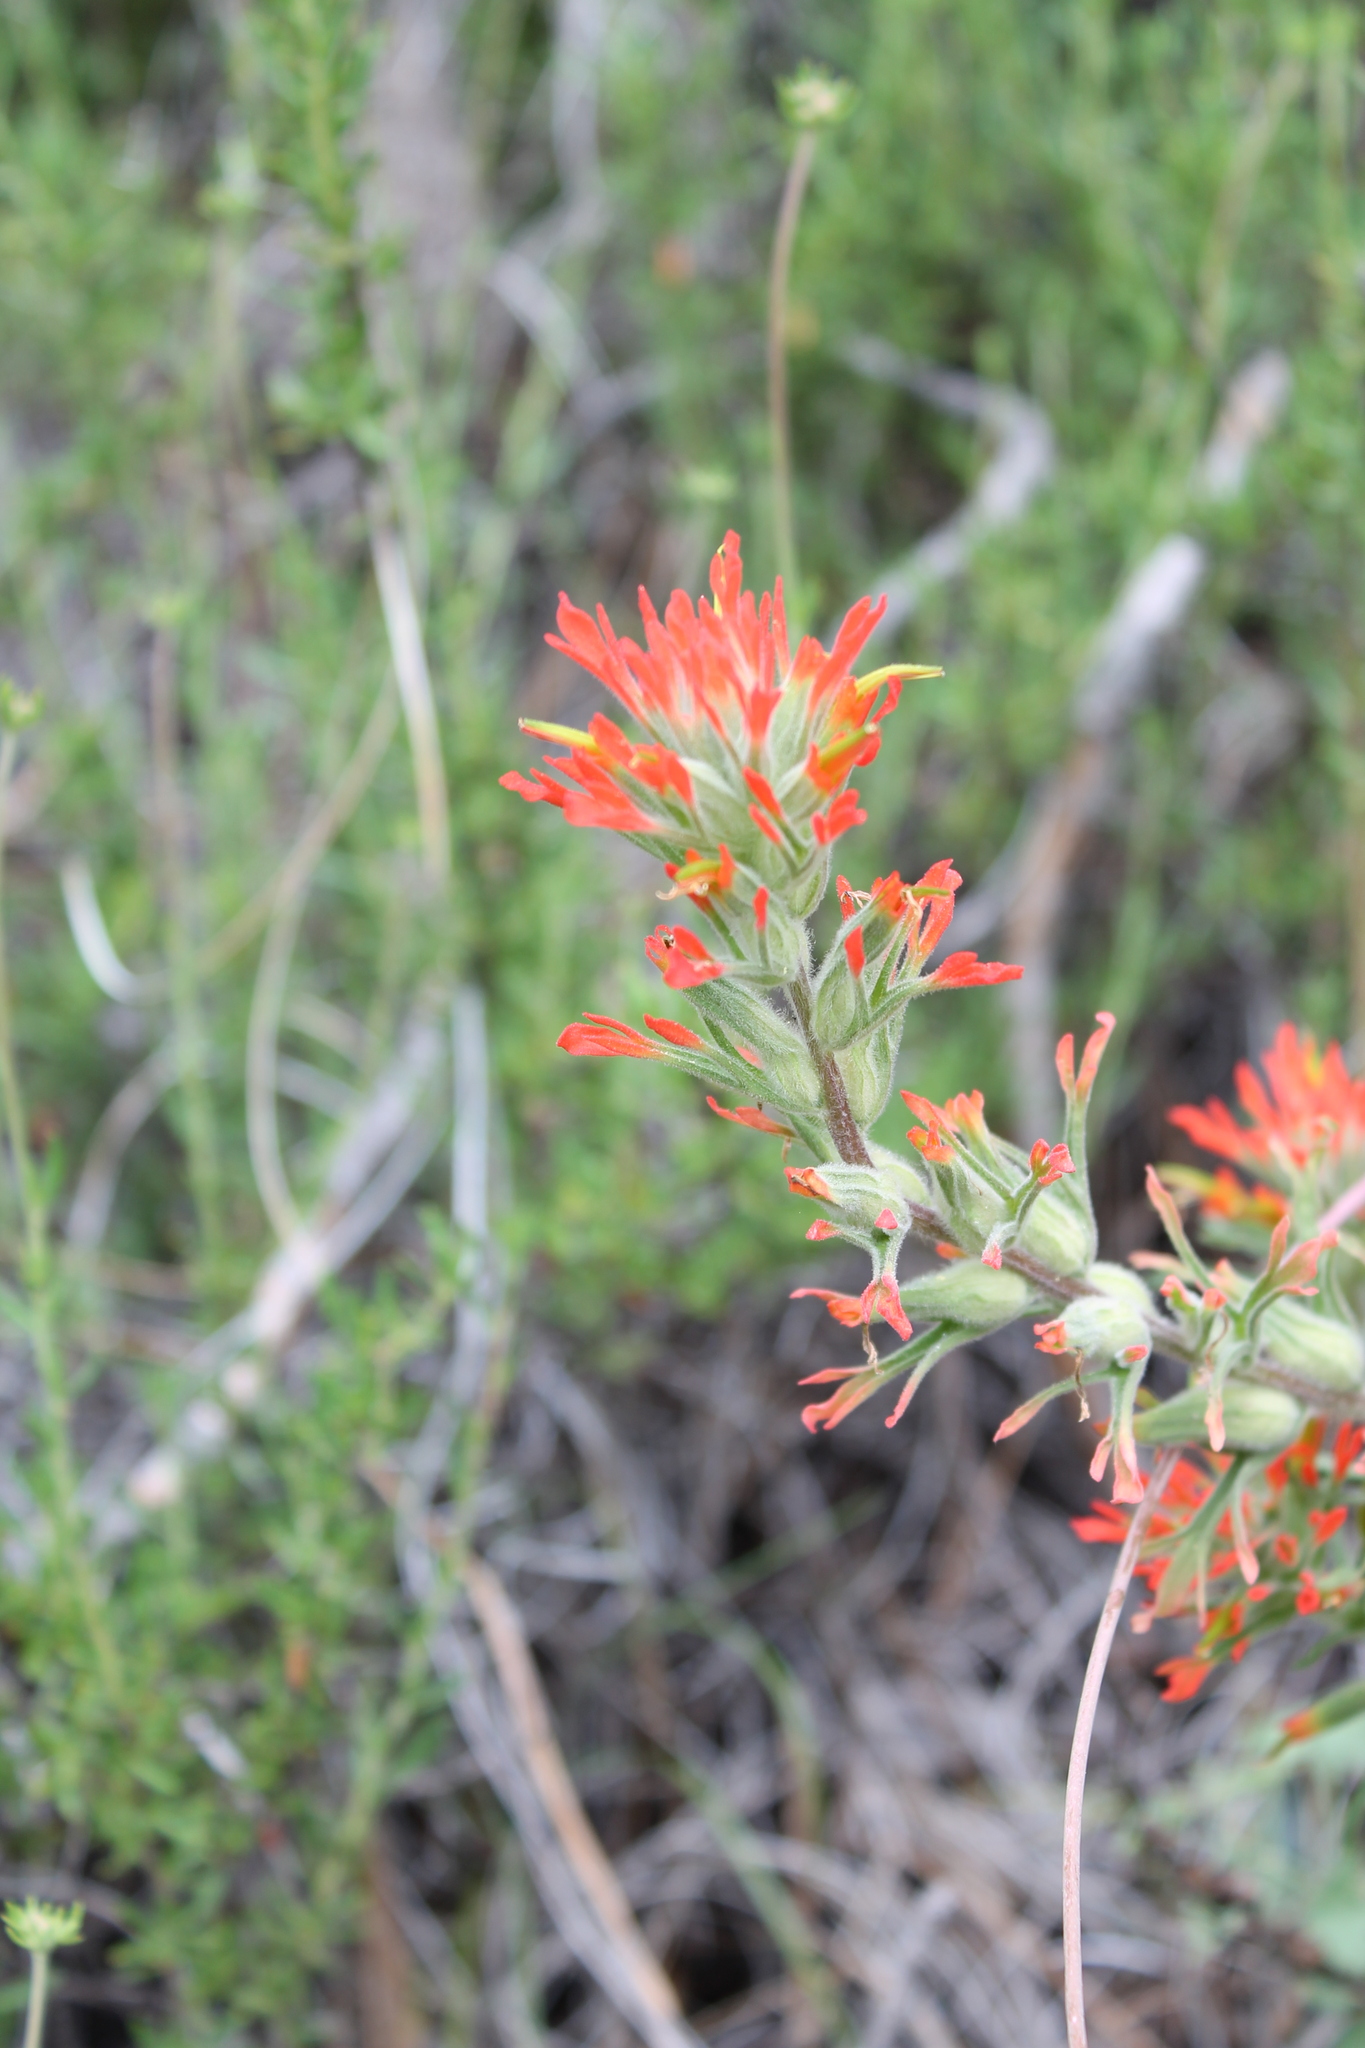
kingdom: Plantae
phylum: Tracheophyta
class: Magnoliopsida
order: Lamiales
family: Orobanchaceae
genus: Castilleja
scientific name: Castilleja foliolosa
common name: Woolly indian paintbrush
